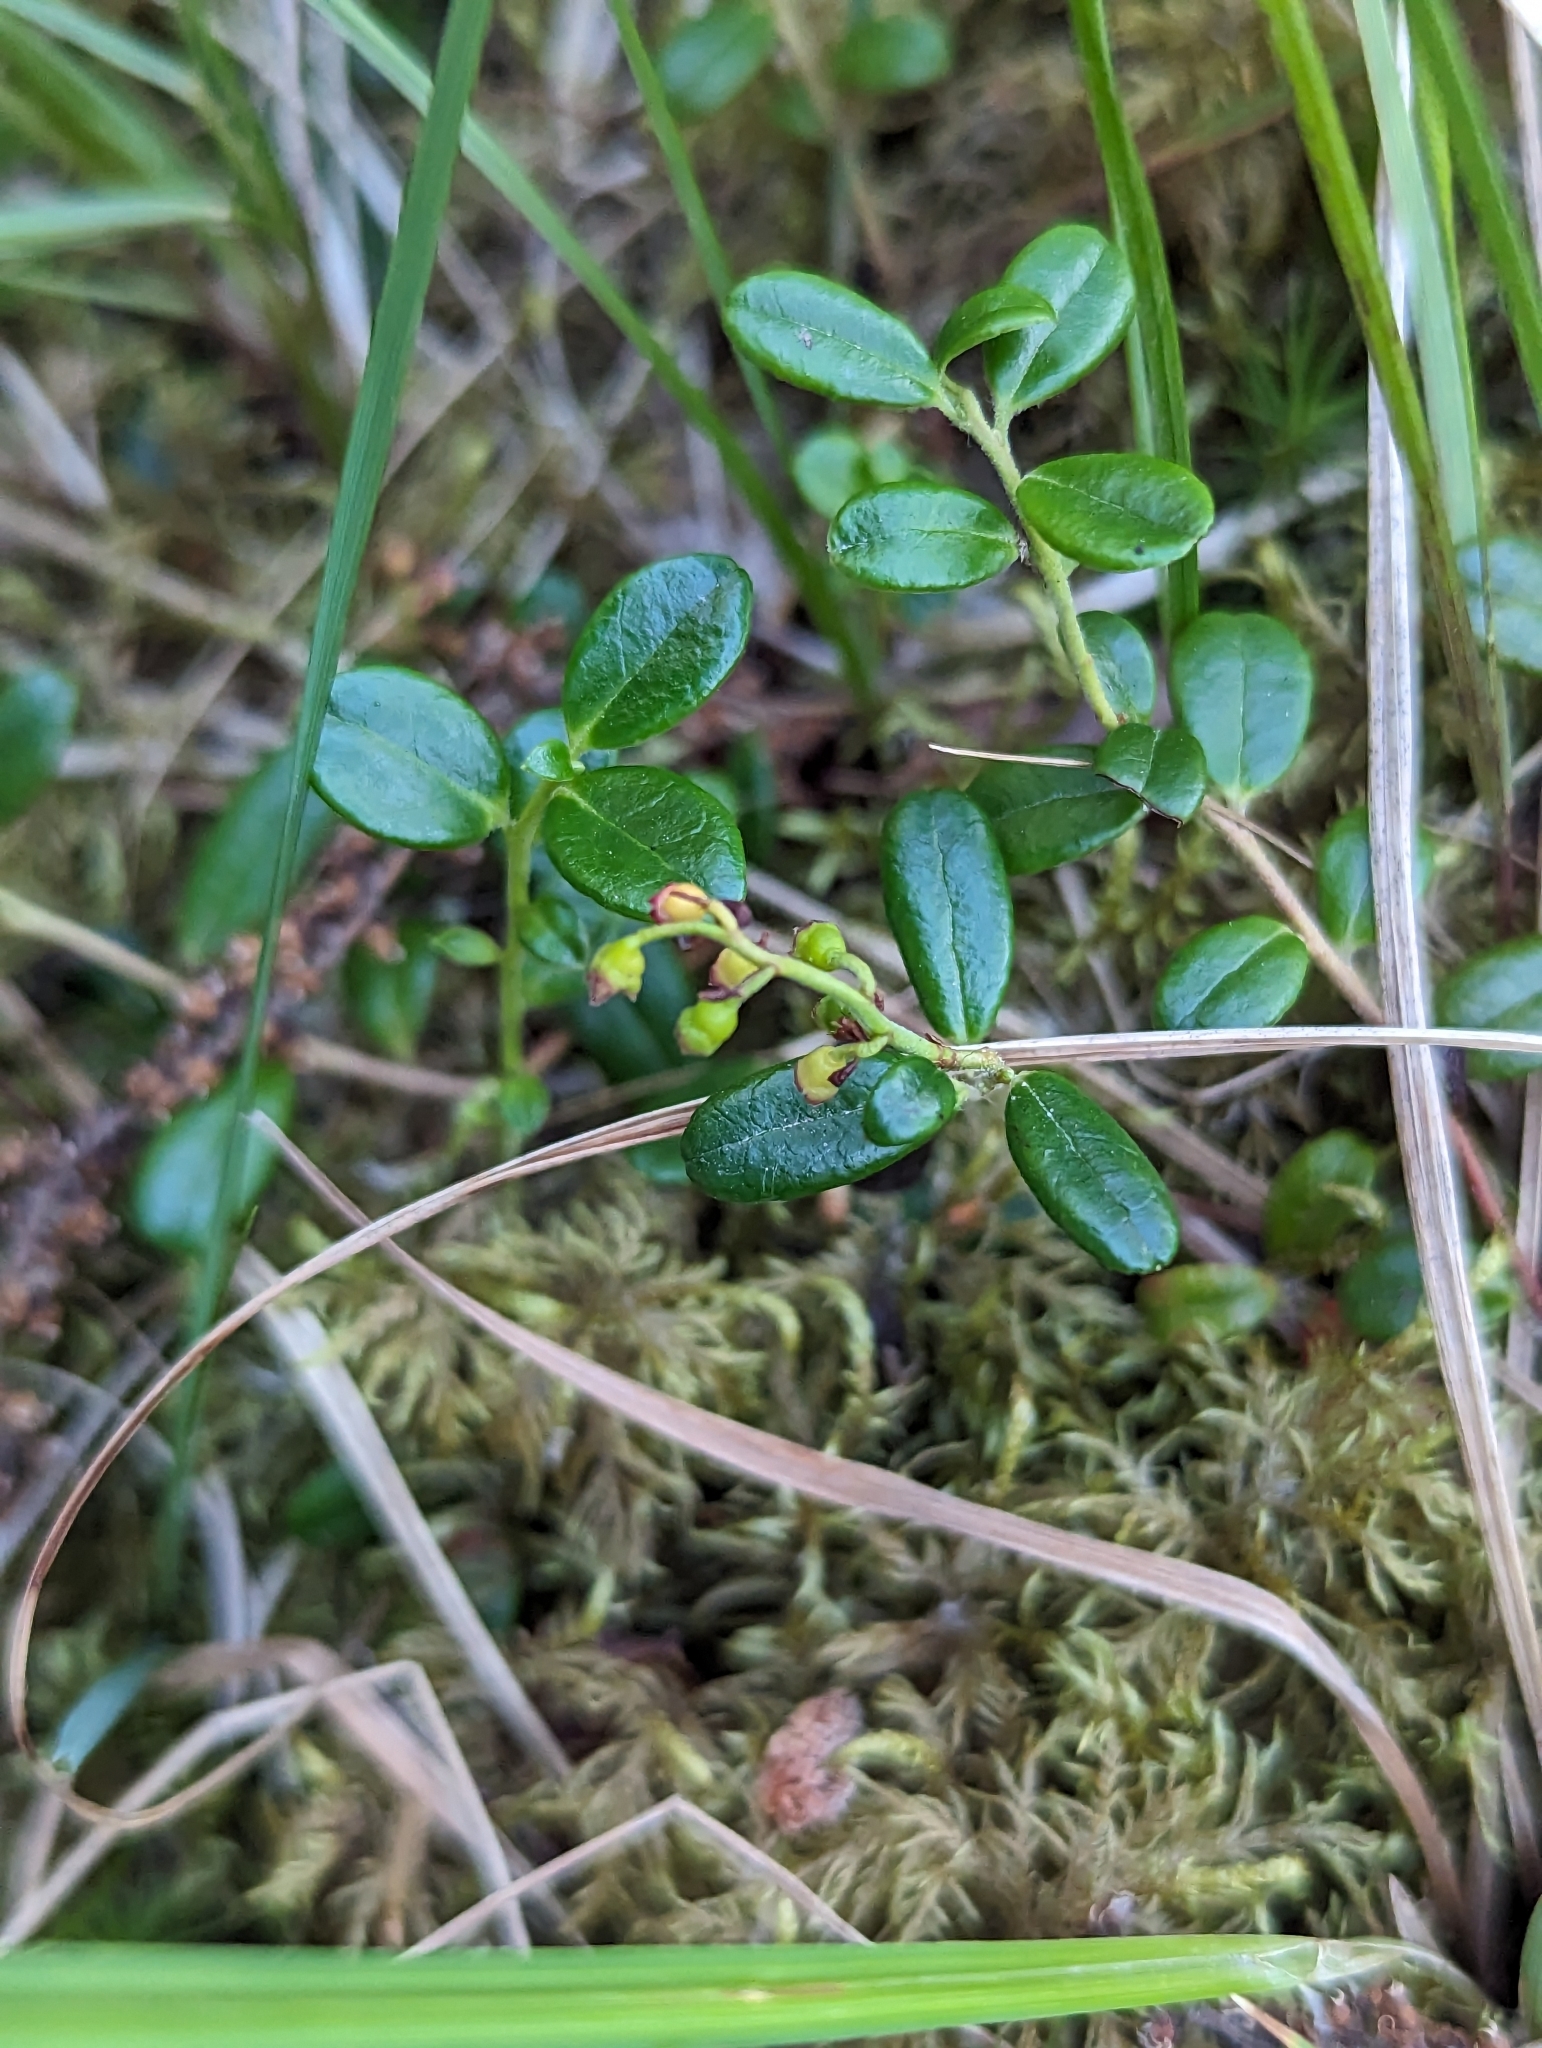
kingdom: Plantae
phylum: Tracheophyta
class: Magnoliopsida
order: Ericales
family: Ericaceae
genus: Vaccinium
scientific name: Vaccinium vitis-idaea
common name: Cowberry
